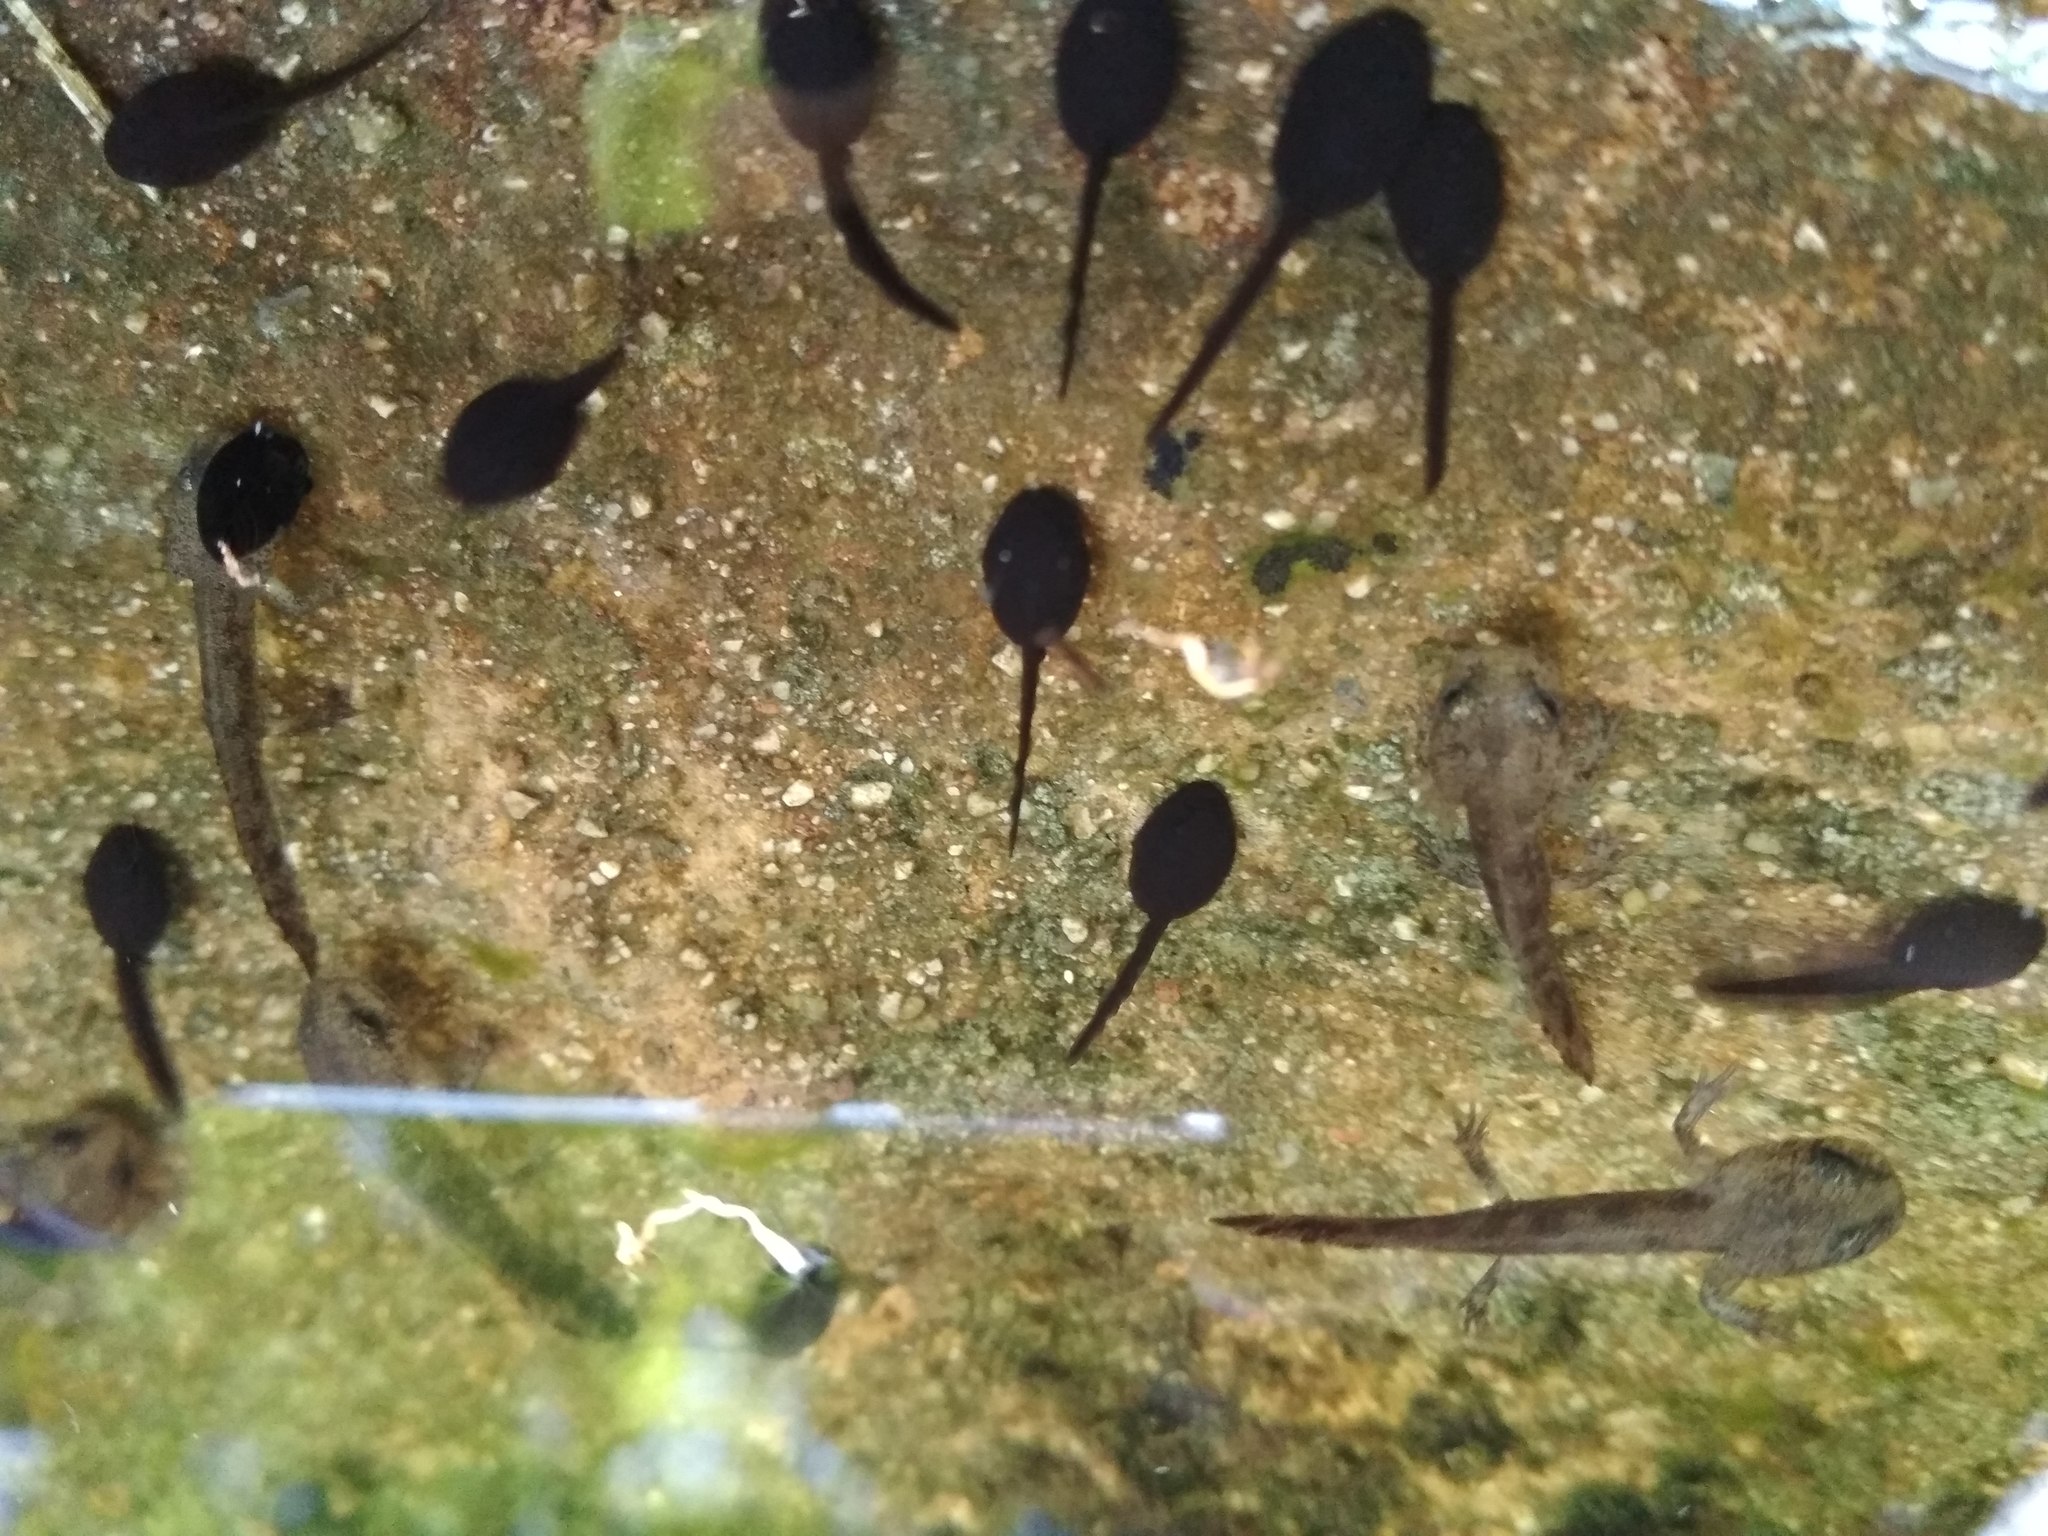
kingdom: Animalia
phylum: Chordata
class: Amphibia
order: Caudata
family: Salamandridae
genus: Salamandra
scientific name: Salamandra salamandra
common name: Fire salamander
